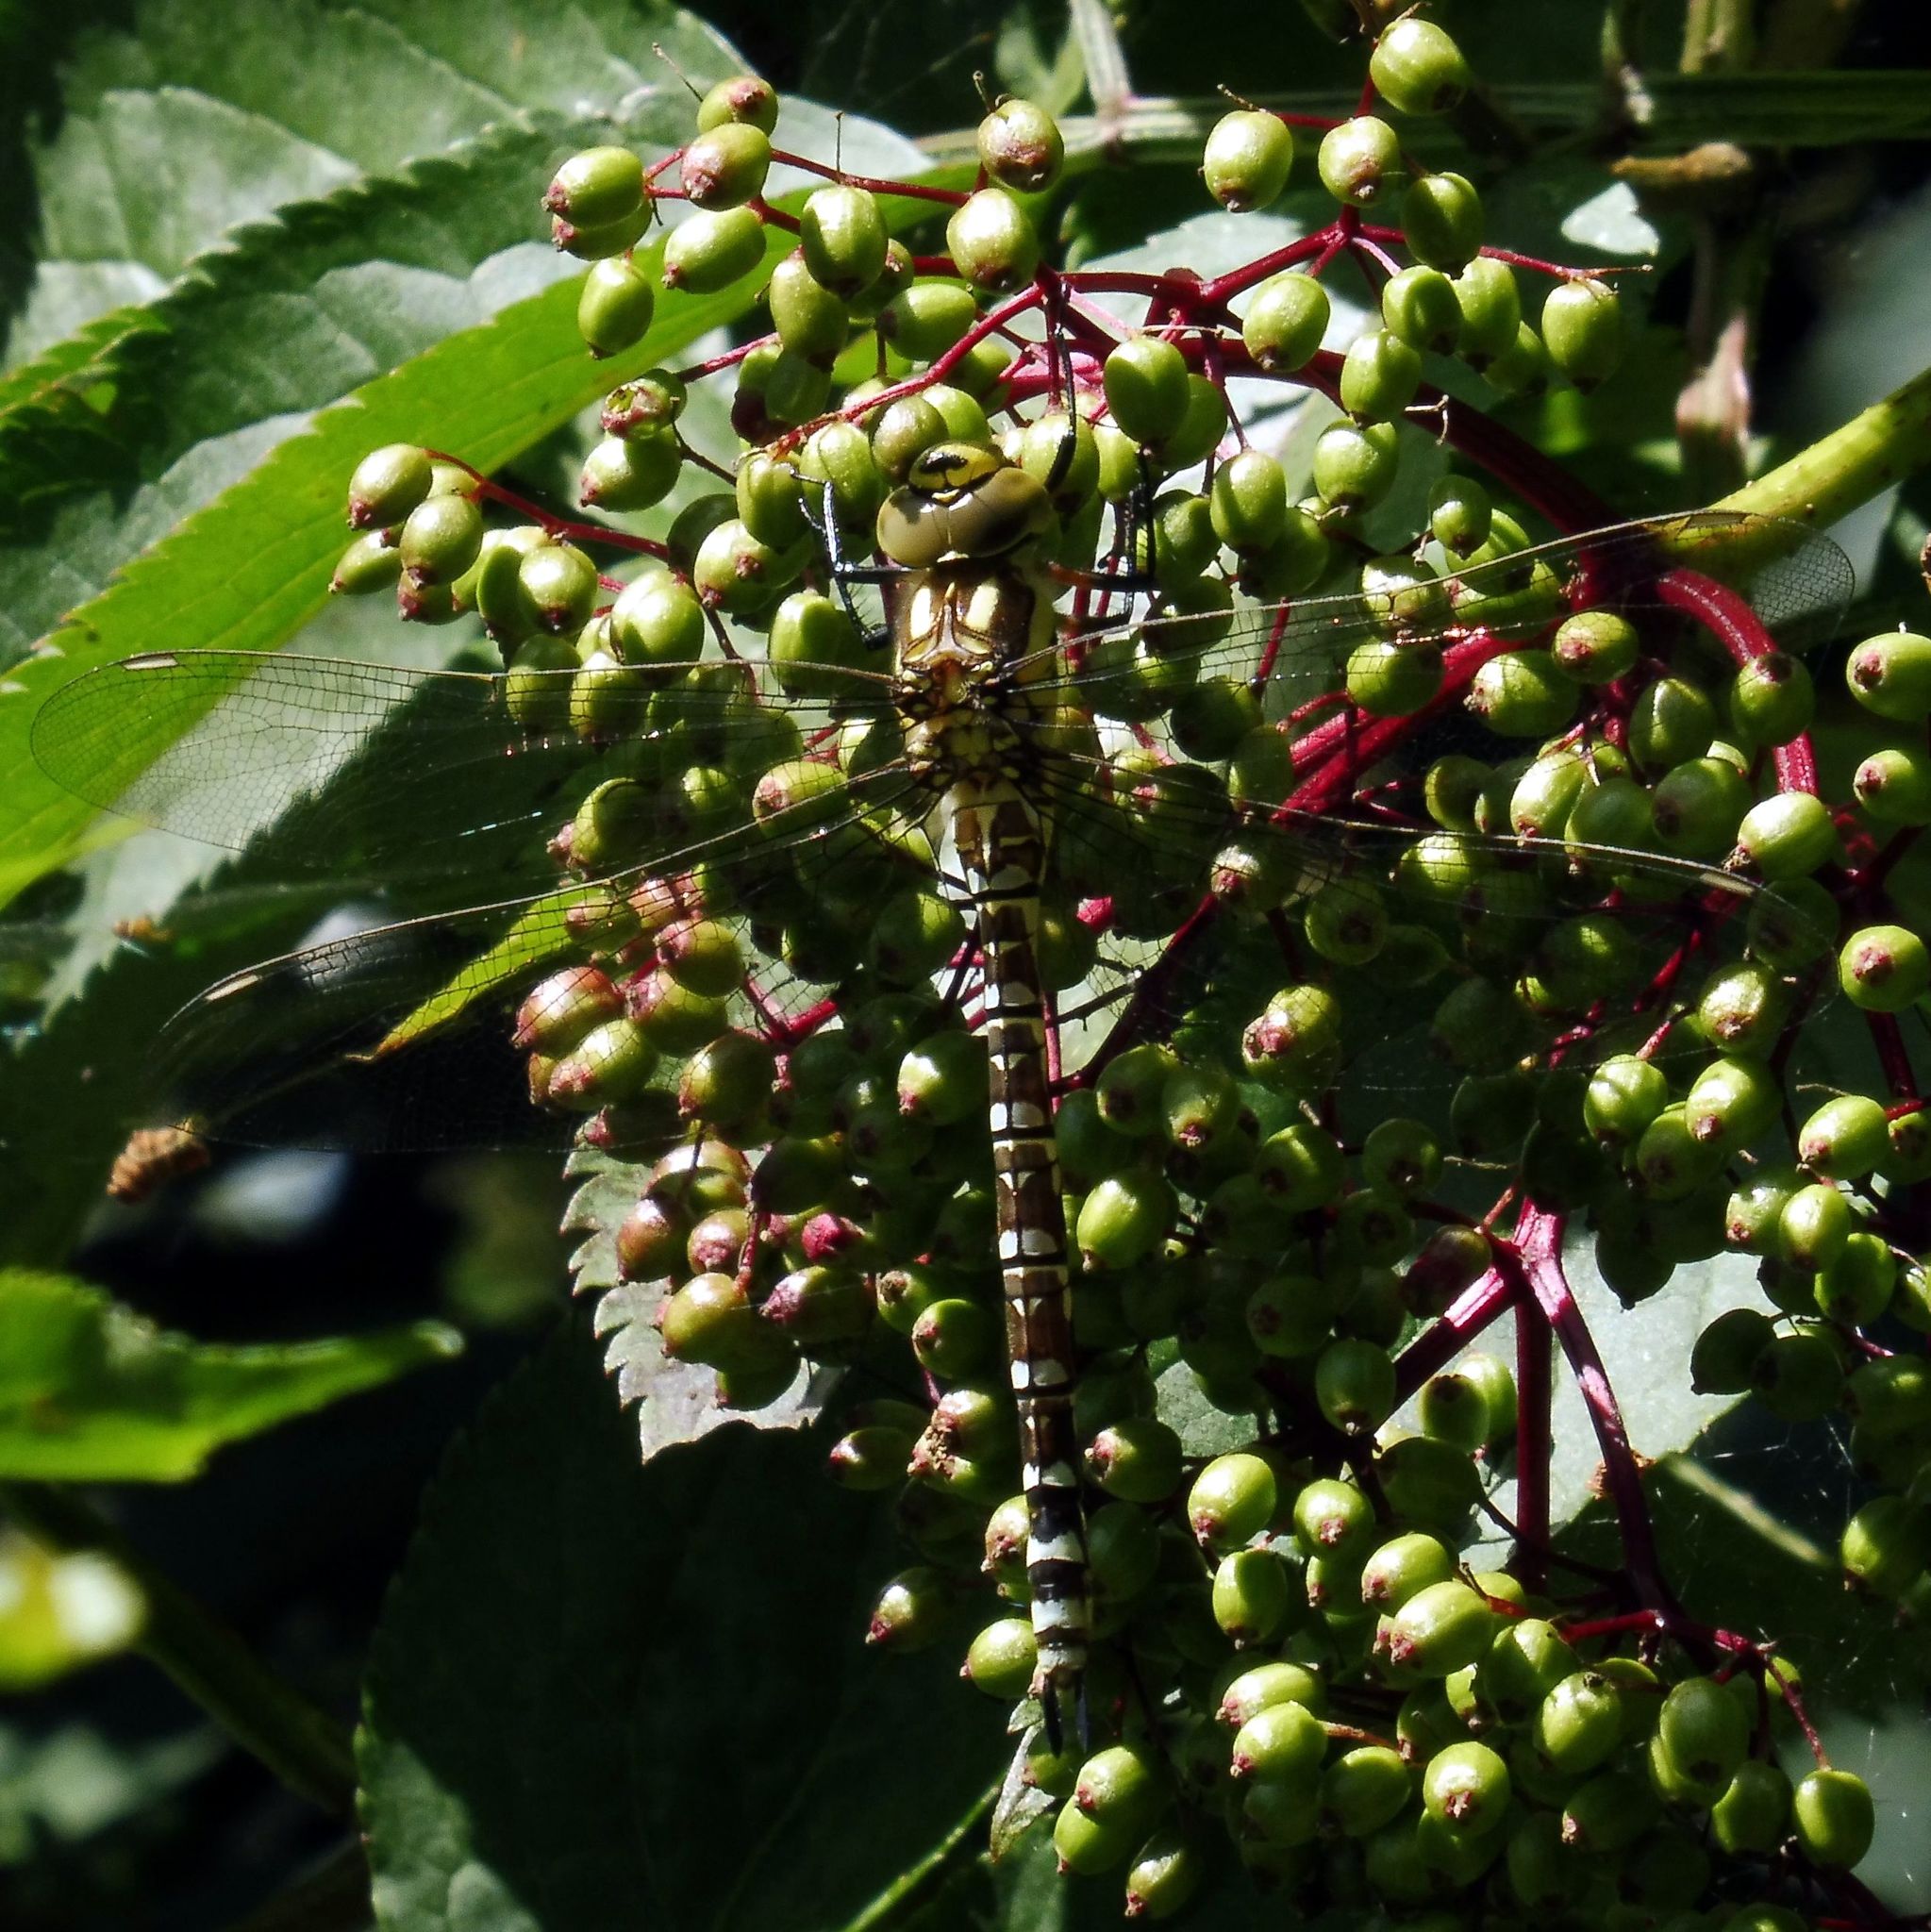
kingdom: Animalia
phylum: Arthropoda
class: Insecta
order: Odonata
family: Aeshnidae
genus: Aeshna
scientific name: Aeshna cyanea
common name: Southern hawker
